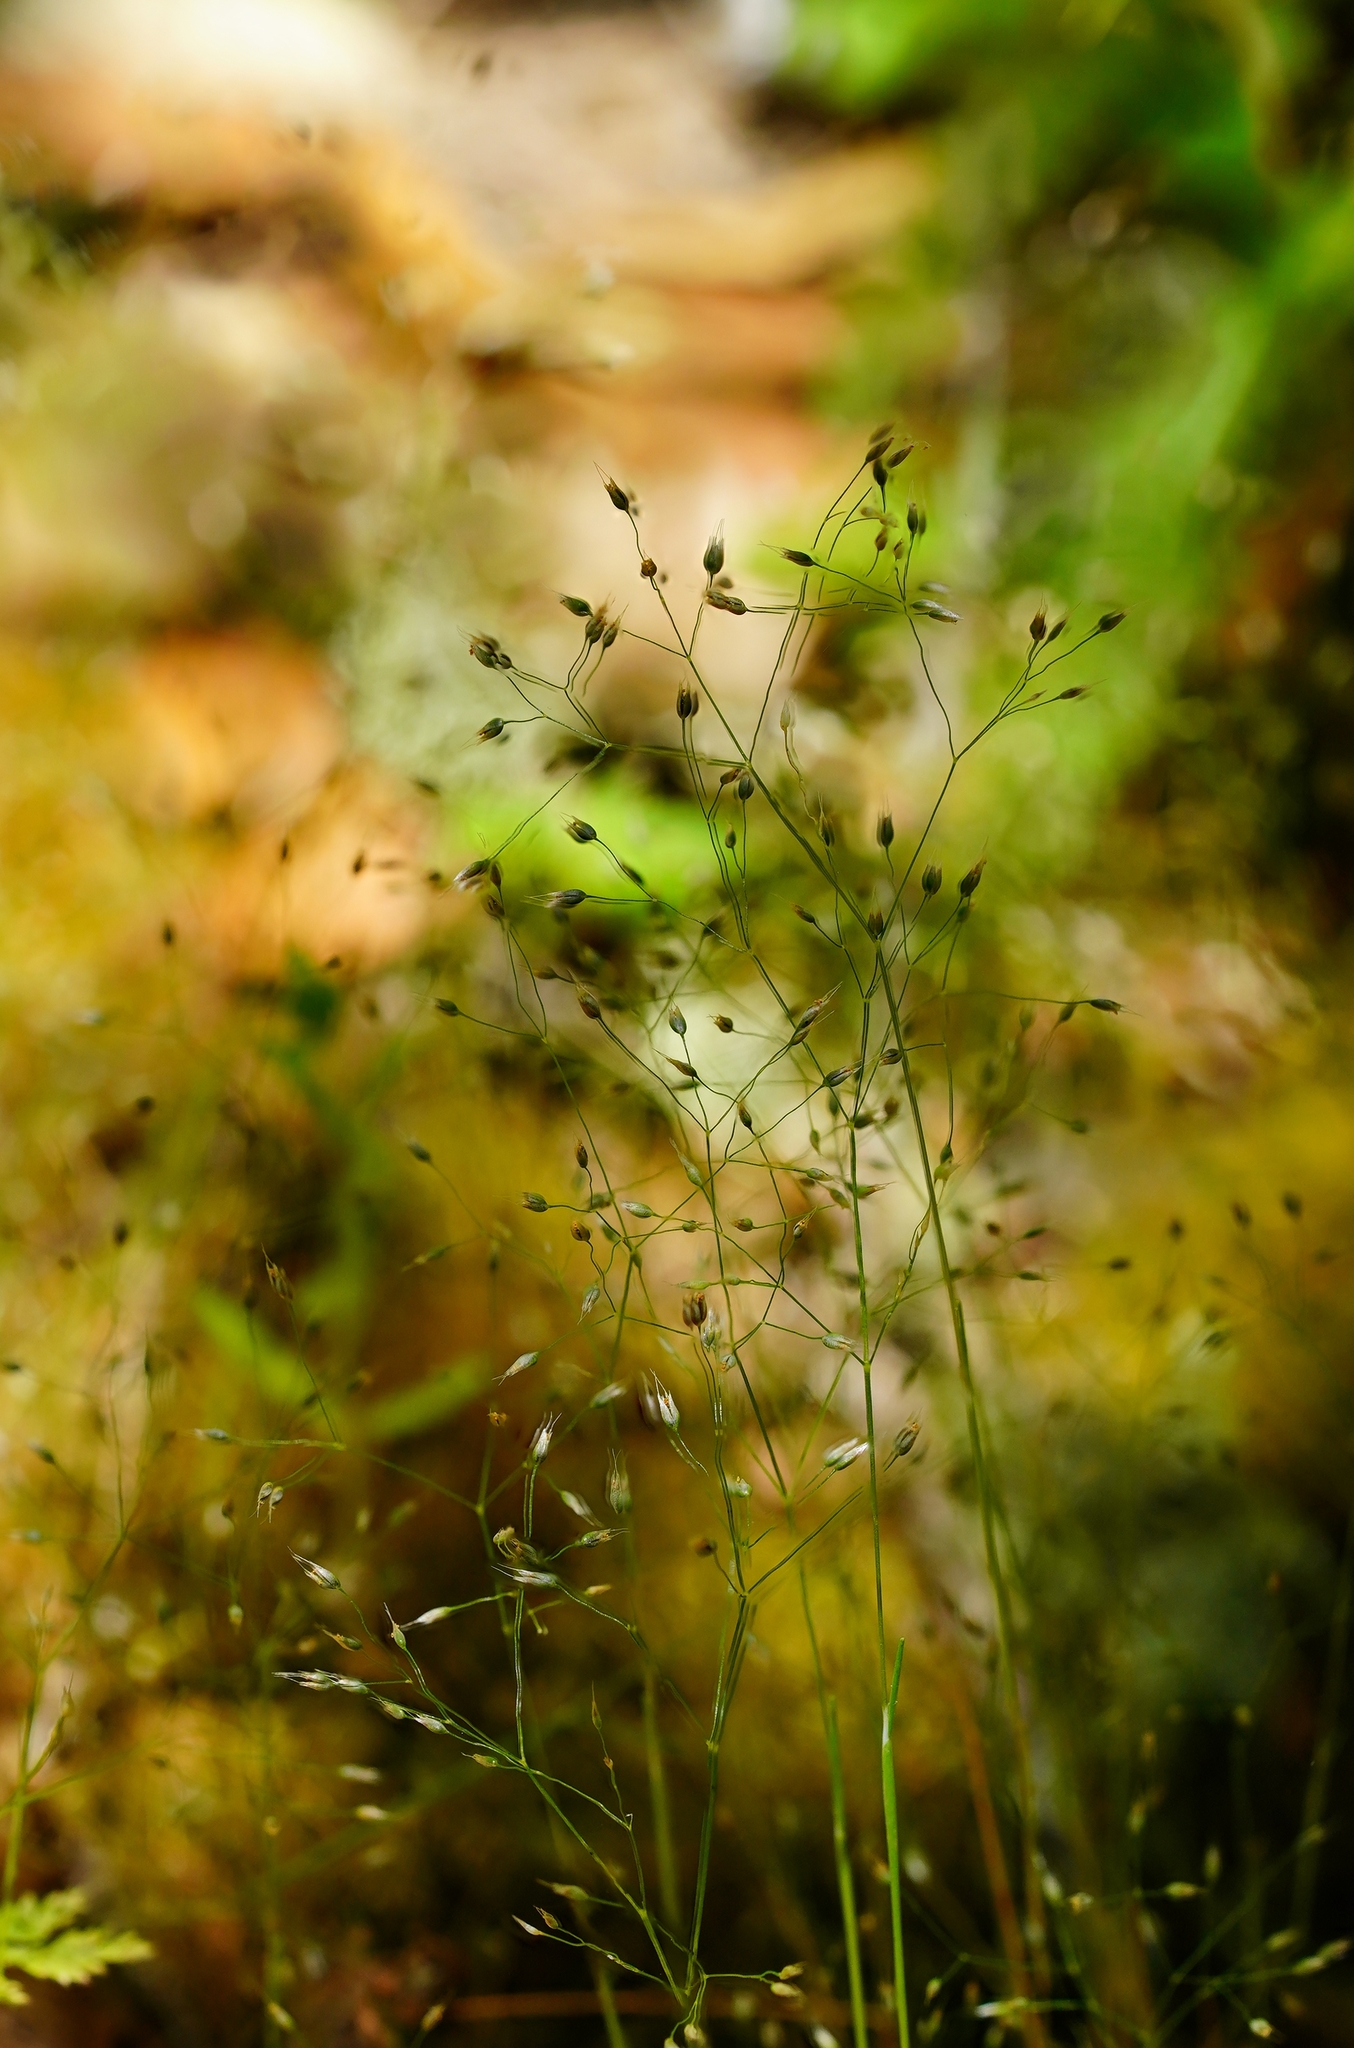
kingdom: Plantae
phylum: Tracheophyta
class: Liliopsida
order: Poales
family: Poaceae
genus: Aira
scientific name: Aira caryophyllea
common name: Silver hairgrass
